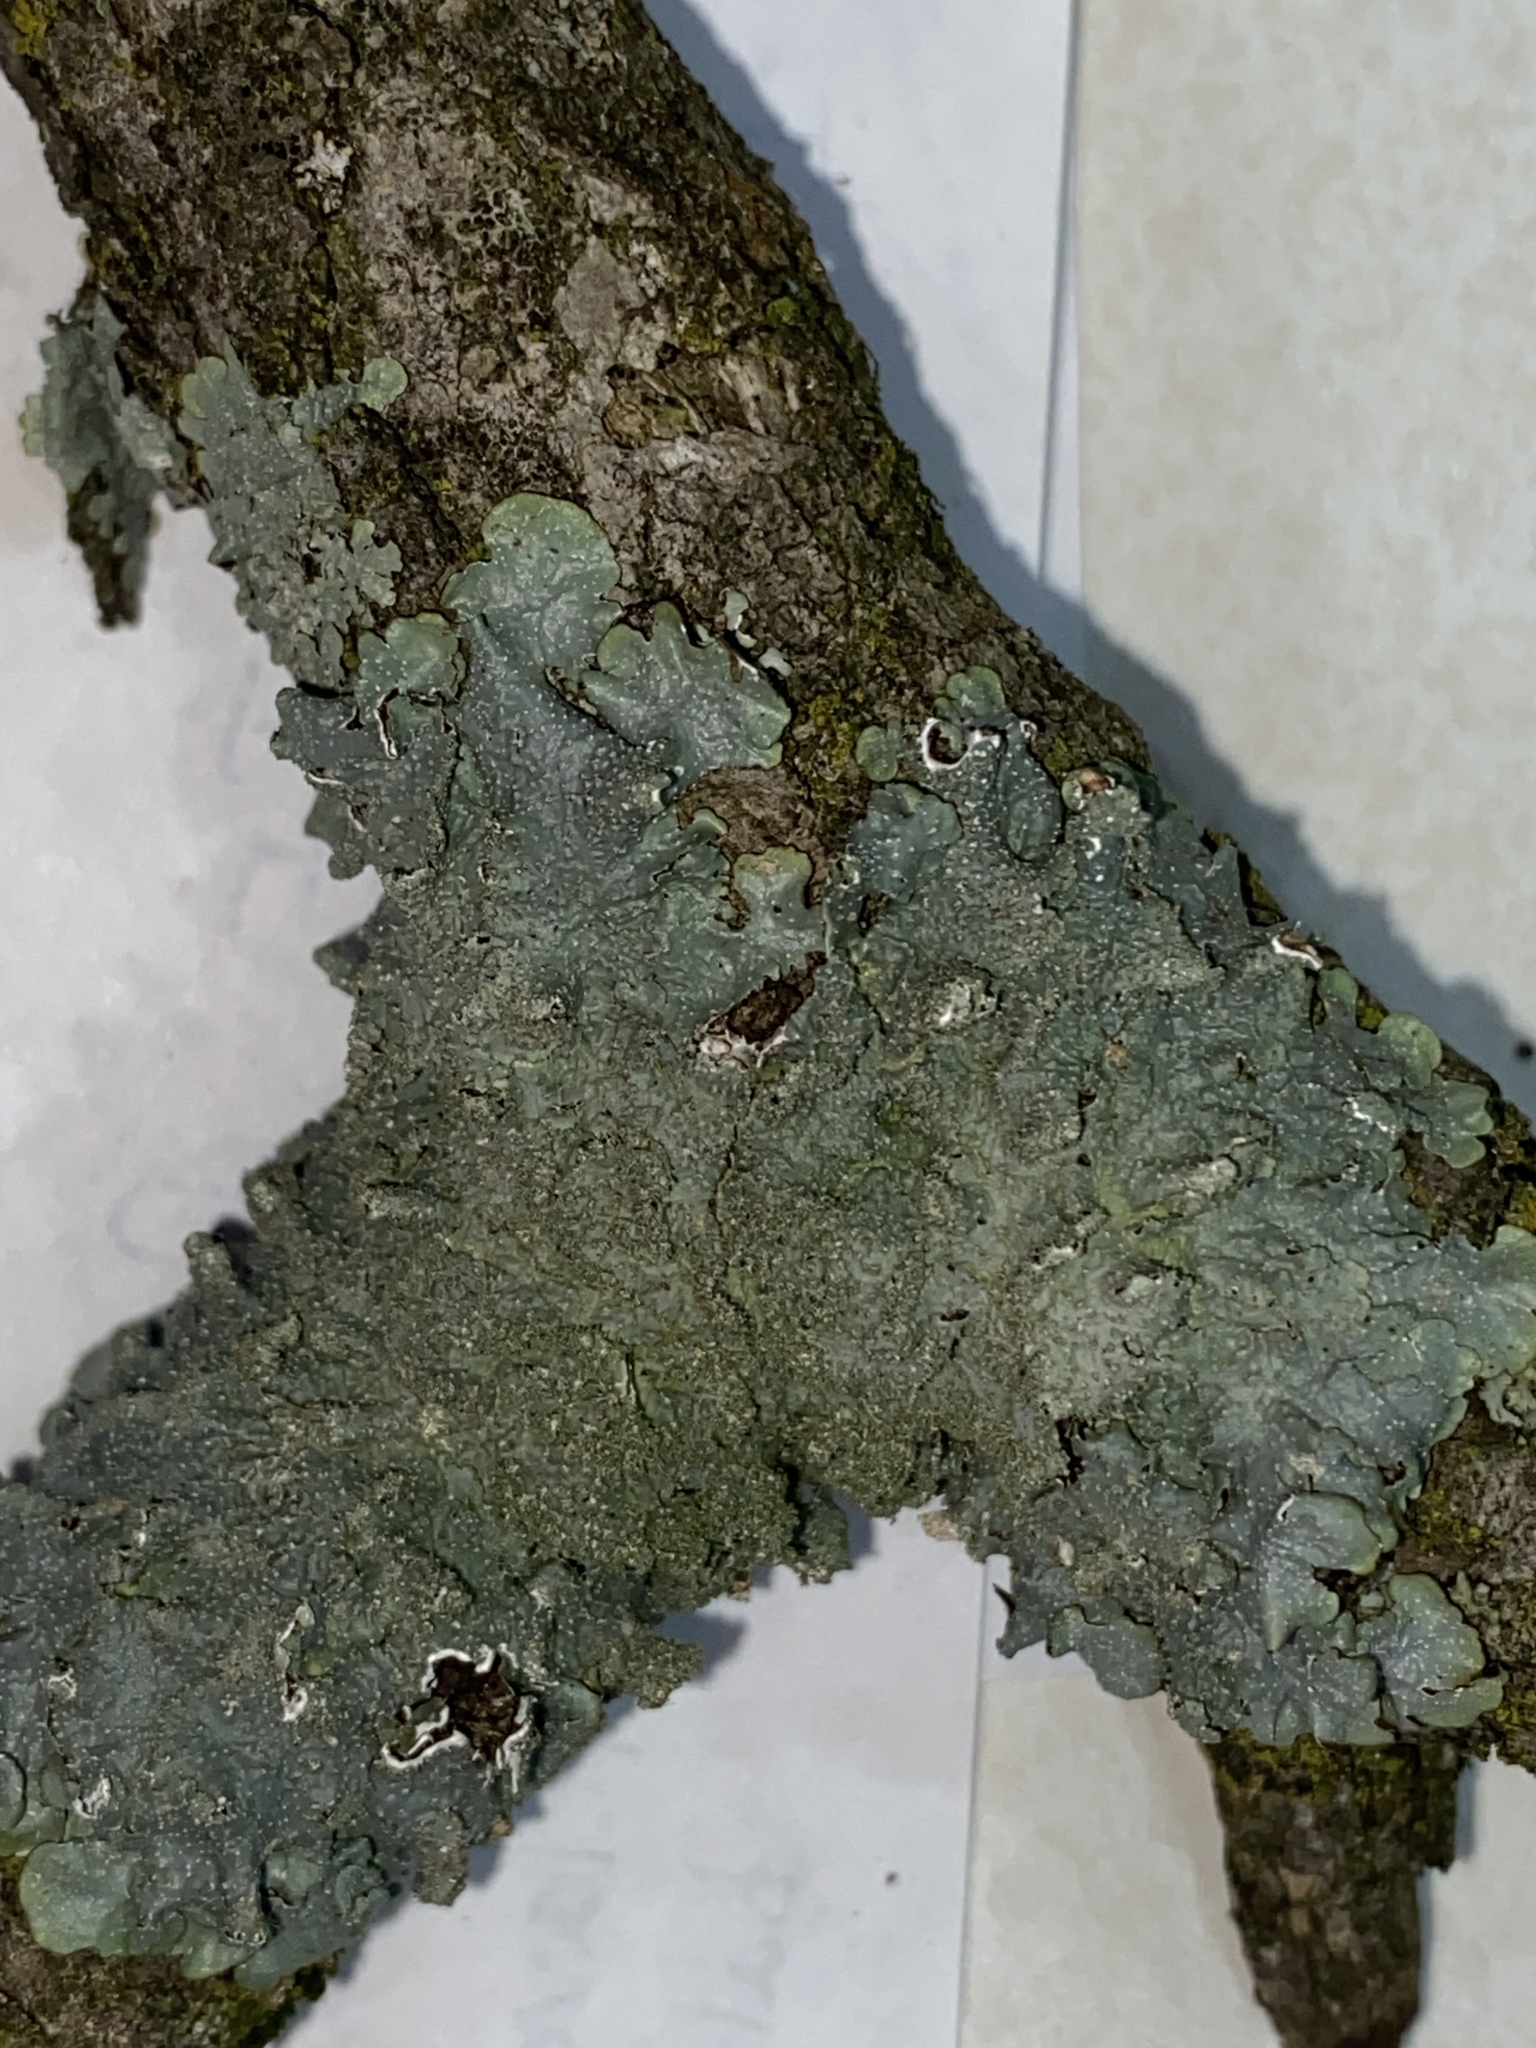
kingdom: Fungi
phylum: Ascomycota
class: Lecanoromycetes
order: Lecanorales
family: Parmeliaceae
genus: Punctelia
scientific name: Punctelia rudecta
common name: Rough speckled shield lichen
